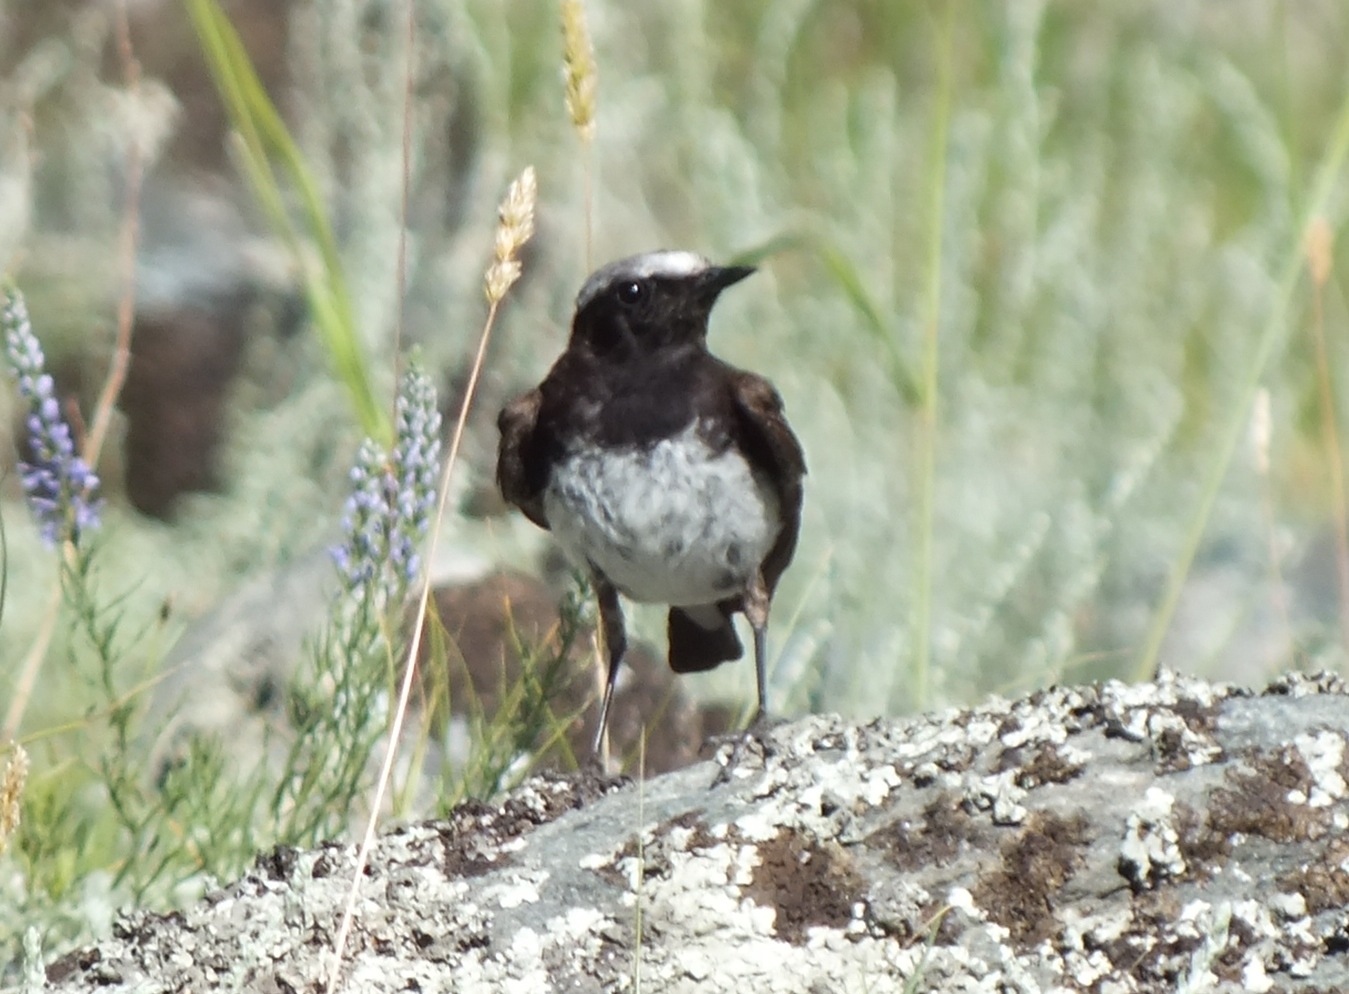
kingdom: Animalia
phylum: Chordata
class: Aves
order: Passeriformes
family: Muscicapidae
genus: Oenanthe
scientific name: Oenanthe pleschanka
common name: Pied wheatear
